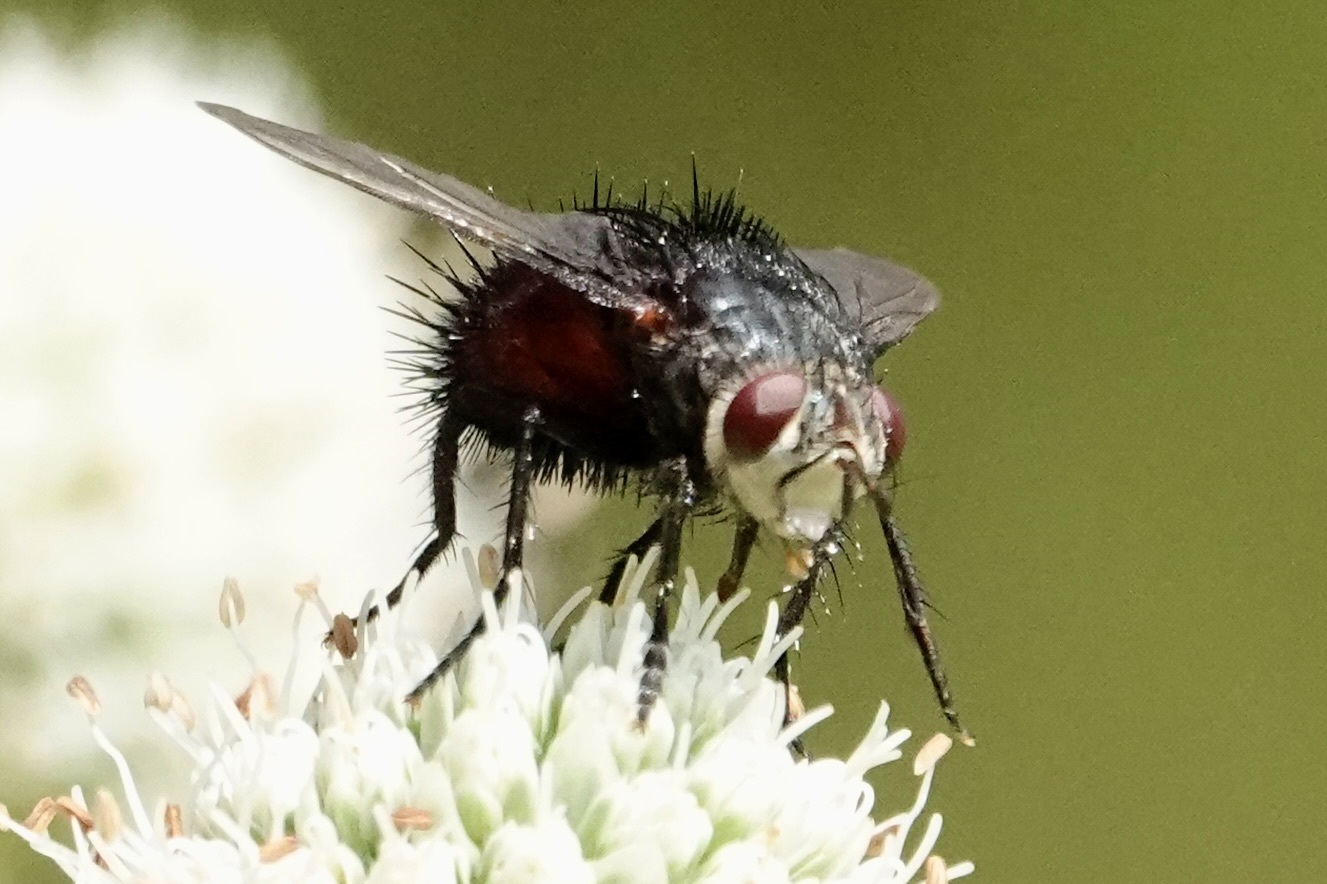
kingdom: Animalia
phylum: Arthropoda
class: Insecta
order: Diptera
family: Tachinidae
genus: Juriniopsis
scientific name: Juriniopsis adusta
